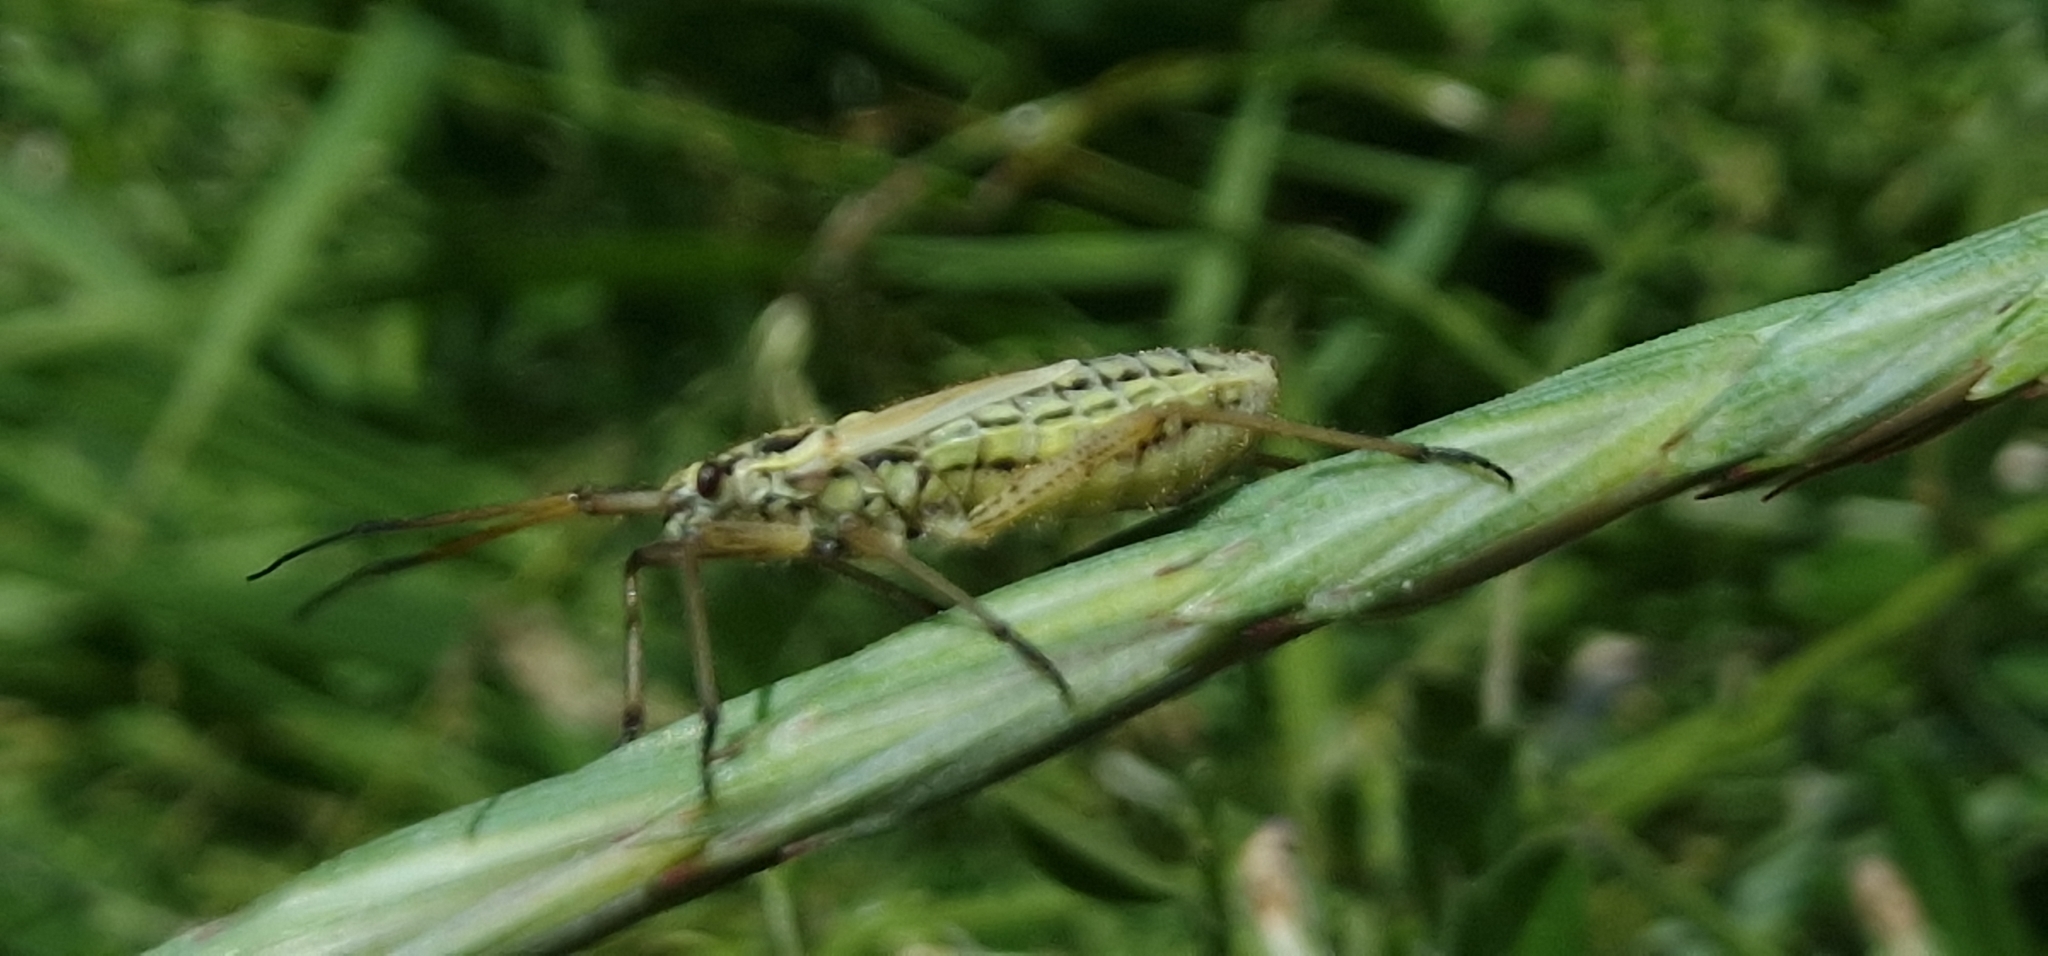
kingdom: Animalia
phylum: Arthropoda
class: Insecta
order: Hemiptera
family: Miridae
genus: Leptopterna
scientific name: Leptopterna dolabrata
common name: Meadow plant bug
